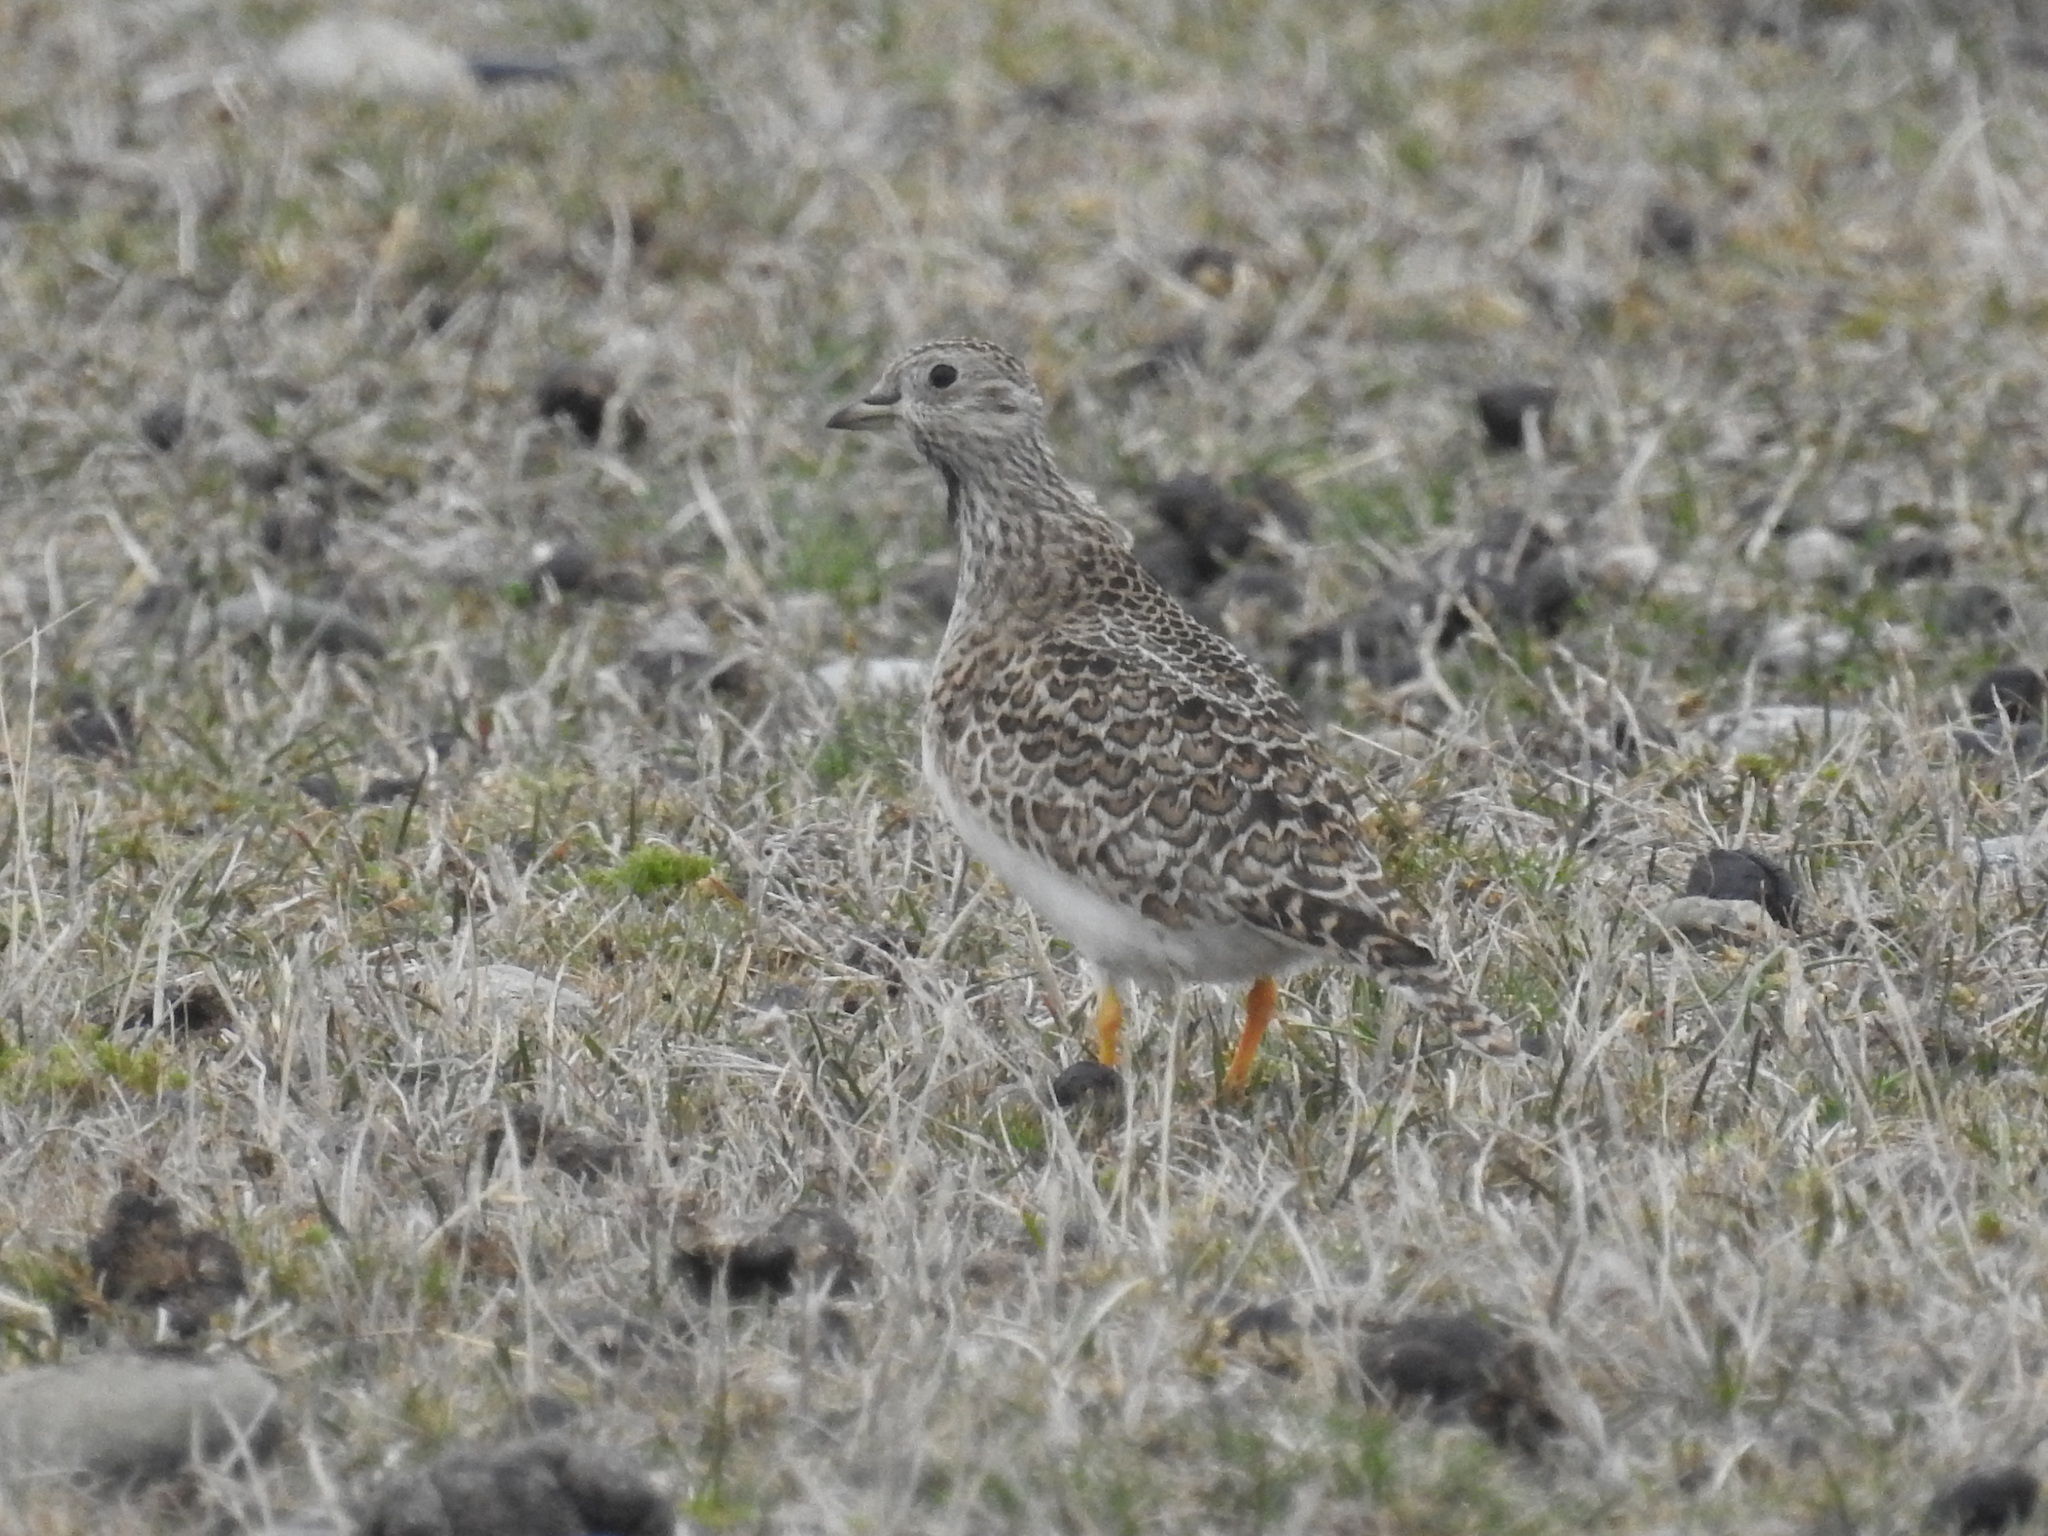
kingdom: Animalia
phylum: Chordata
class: Aves
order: Charadriiformes
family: Thinocoridae
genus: Thinocorus
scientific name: Thinocorus rumicivorus
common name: Least seedsnipe
